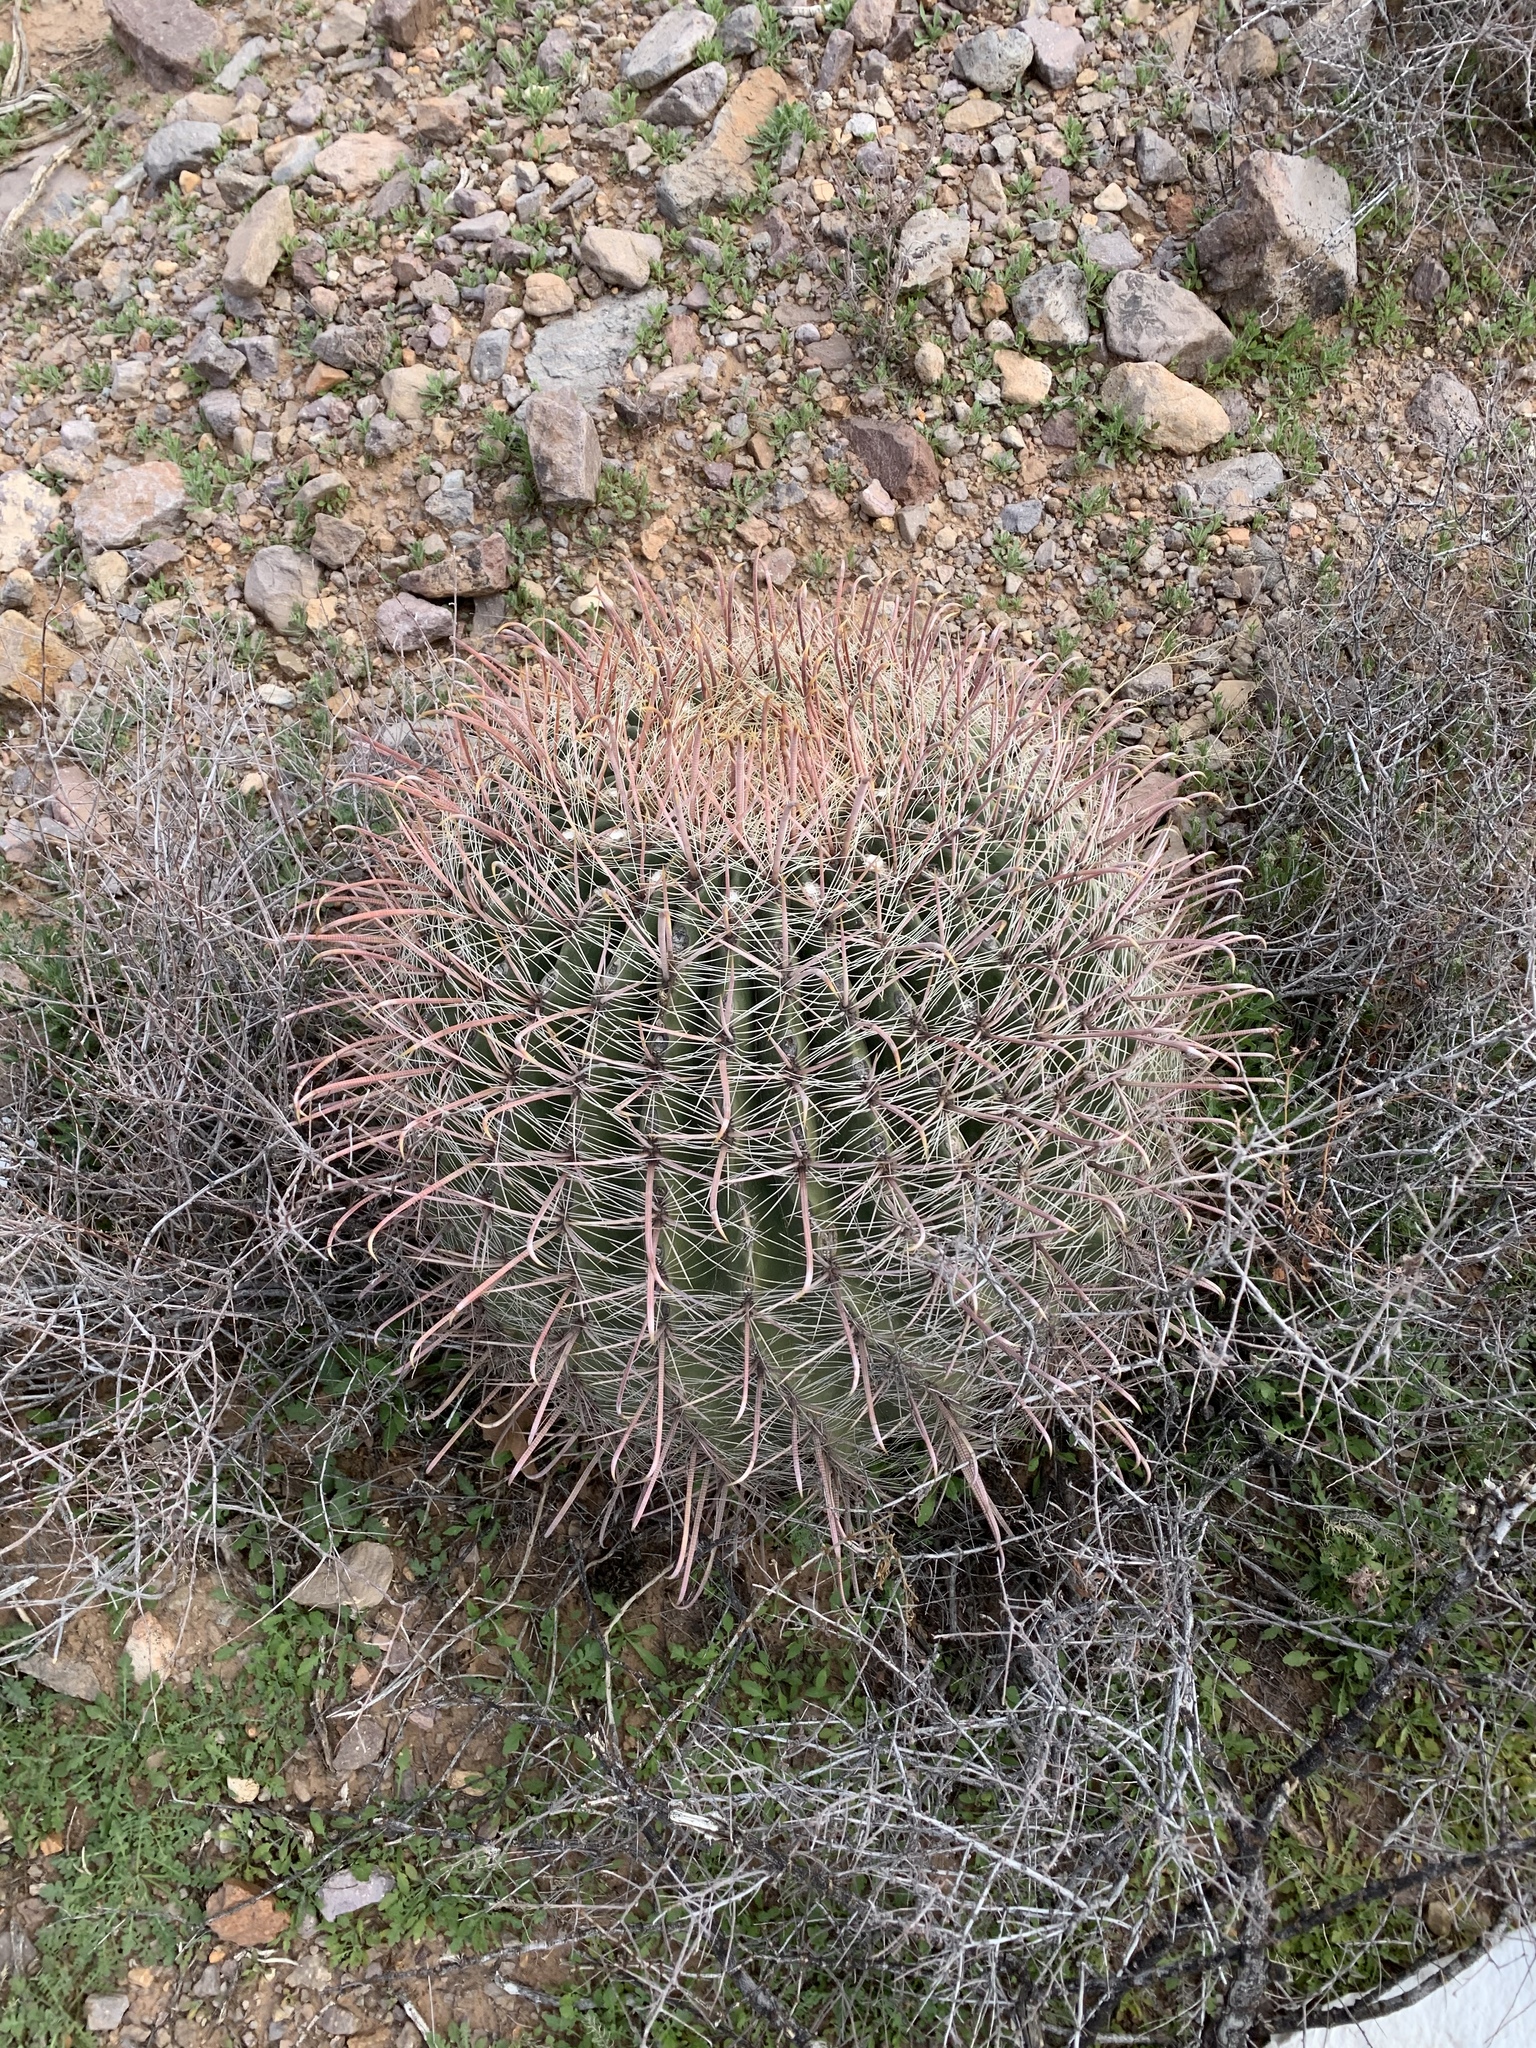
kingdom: Plantae
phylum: Tracheophyta
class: Magnoliopsida
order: Caryophyllales
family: Cactaceae
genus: Ferocactus
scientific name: Ferocactus wislizeni
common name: Candy barrel cactus
